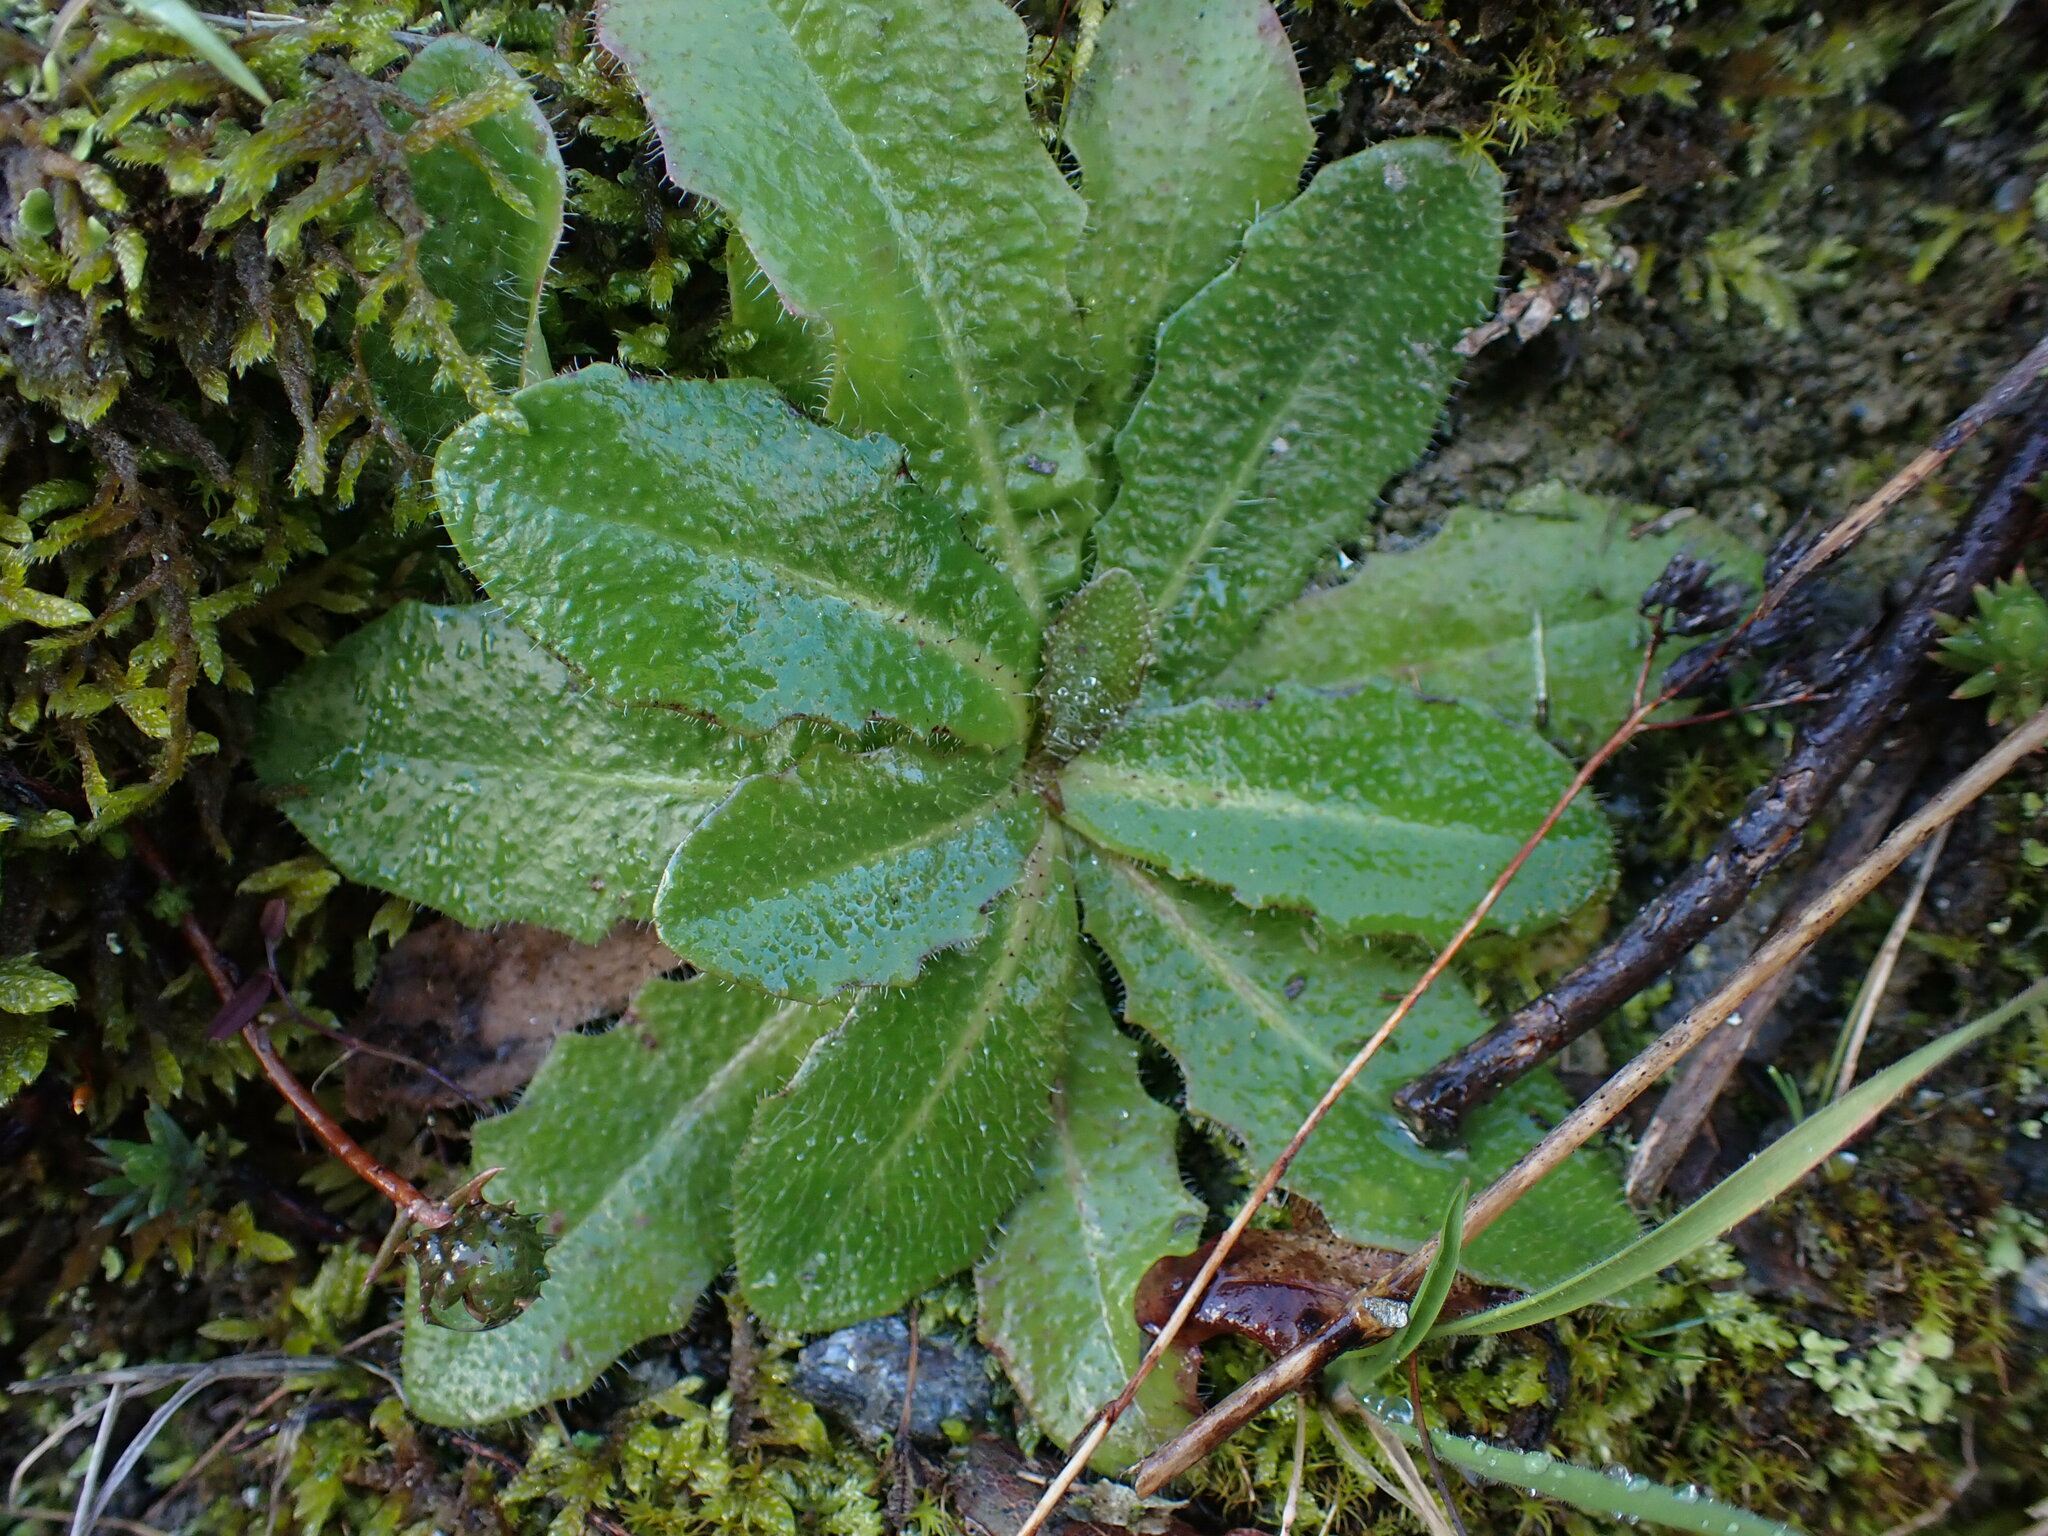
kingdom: Plantae
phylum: Tracheophyta
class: Magnoliopsida
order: Asterales
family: Asteraceae
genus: Hypochaeris
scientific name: Hypochaeris glabra
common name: Smooth catsear
